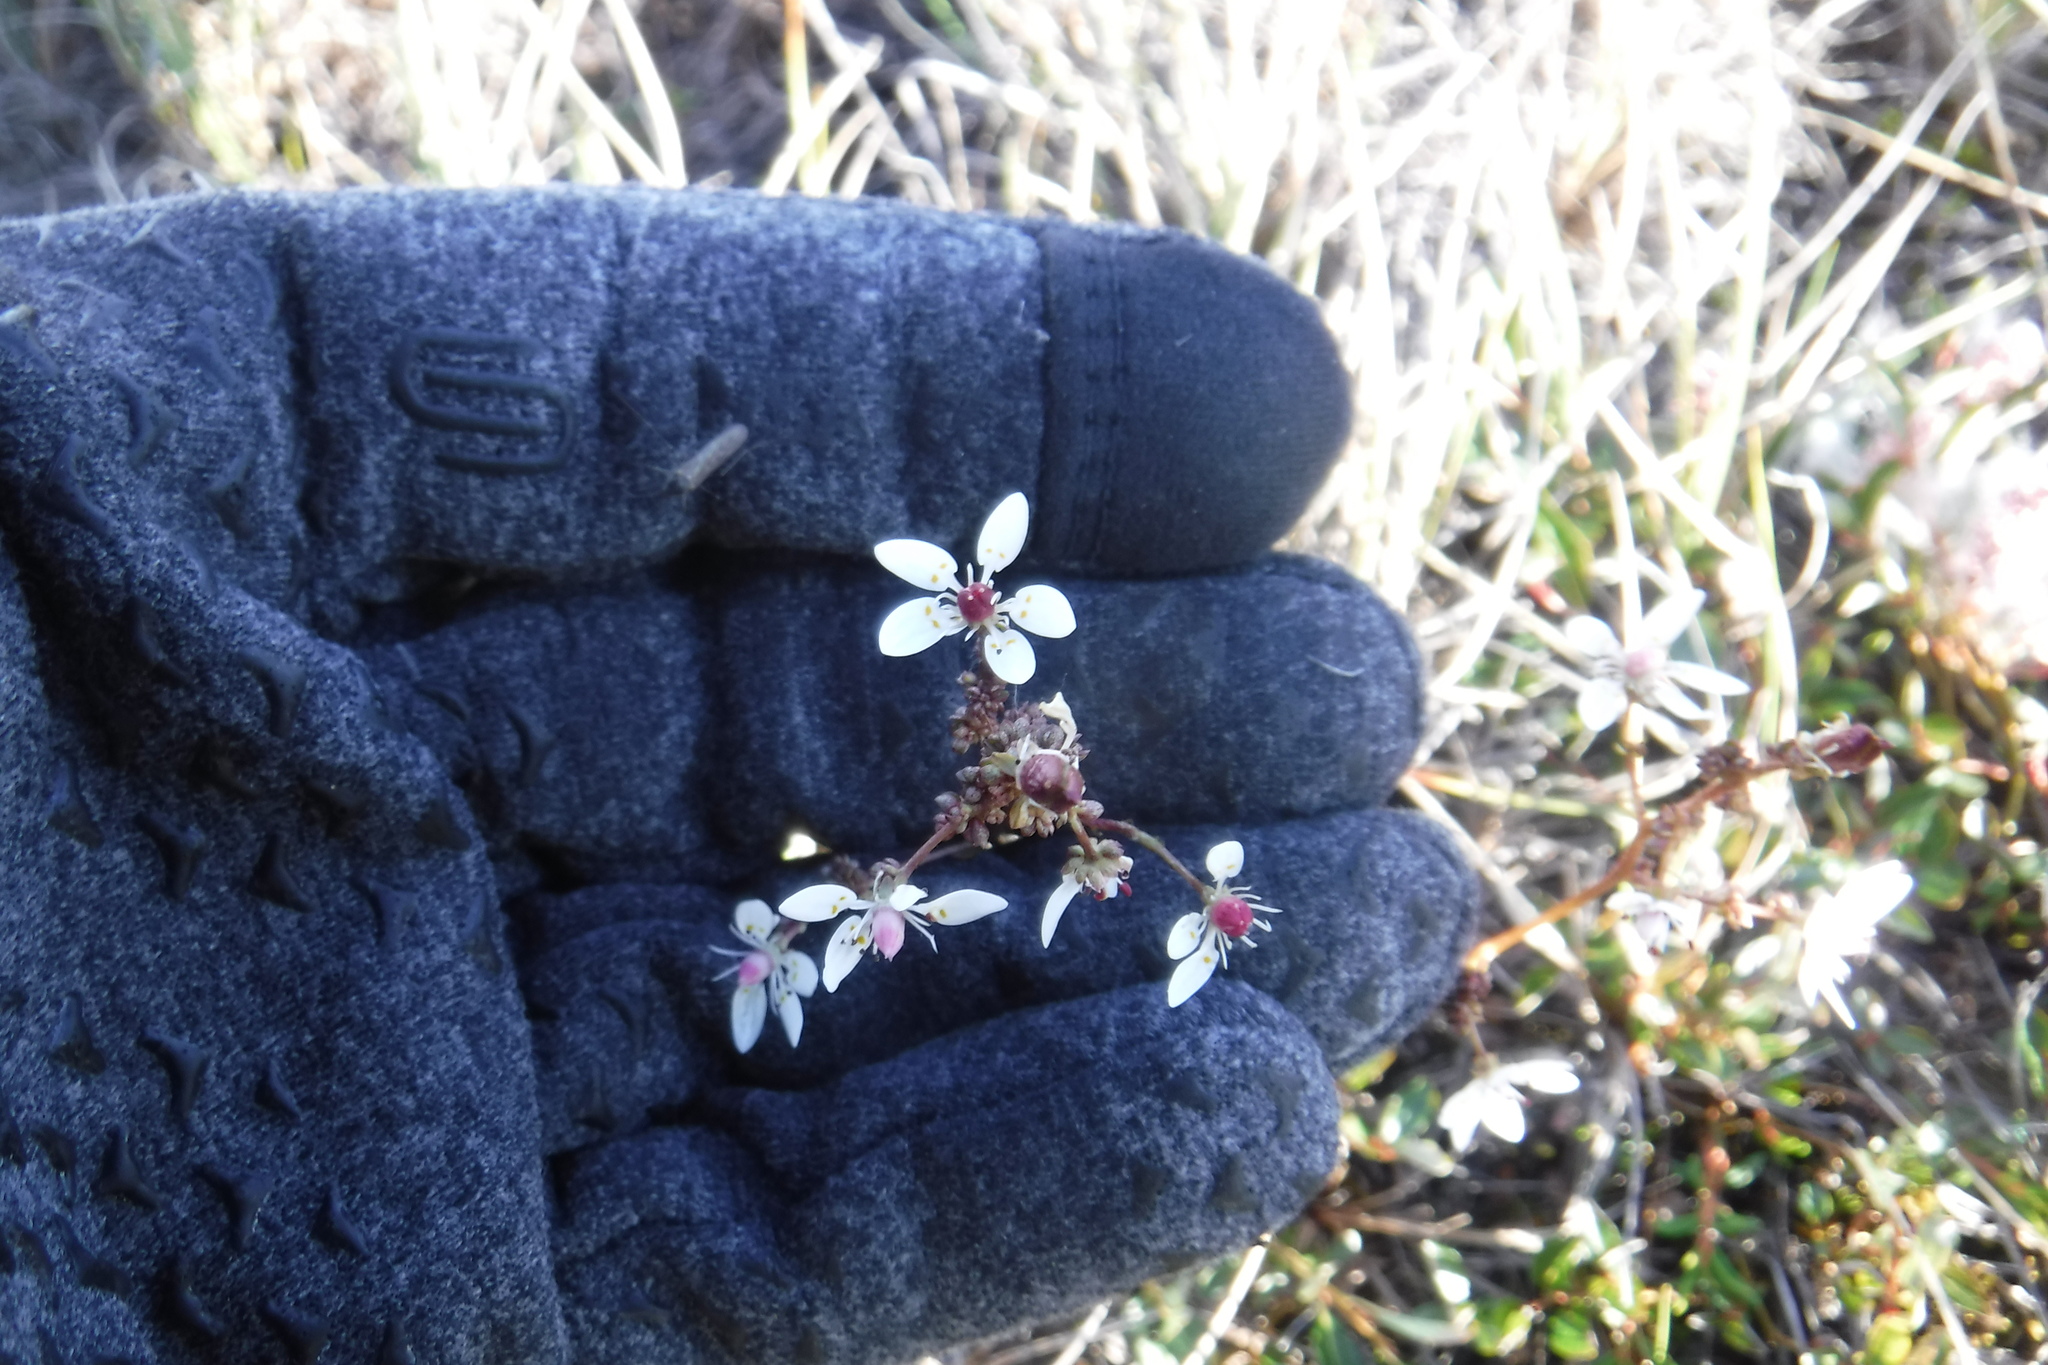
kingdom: Plantae
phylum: Tracheophyta
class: Magnoliopsida
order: Saxifragales
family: Saxifragaceae
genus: Micranthes
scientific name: Micranthes foliolosa
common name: Leafystem saxifrage
